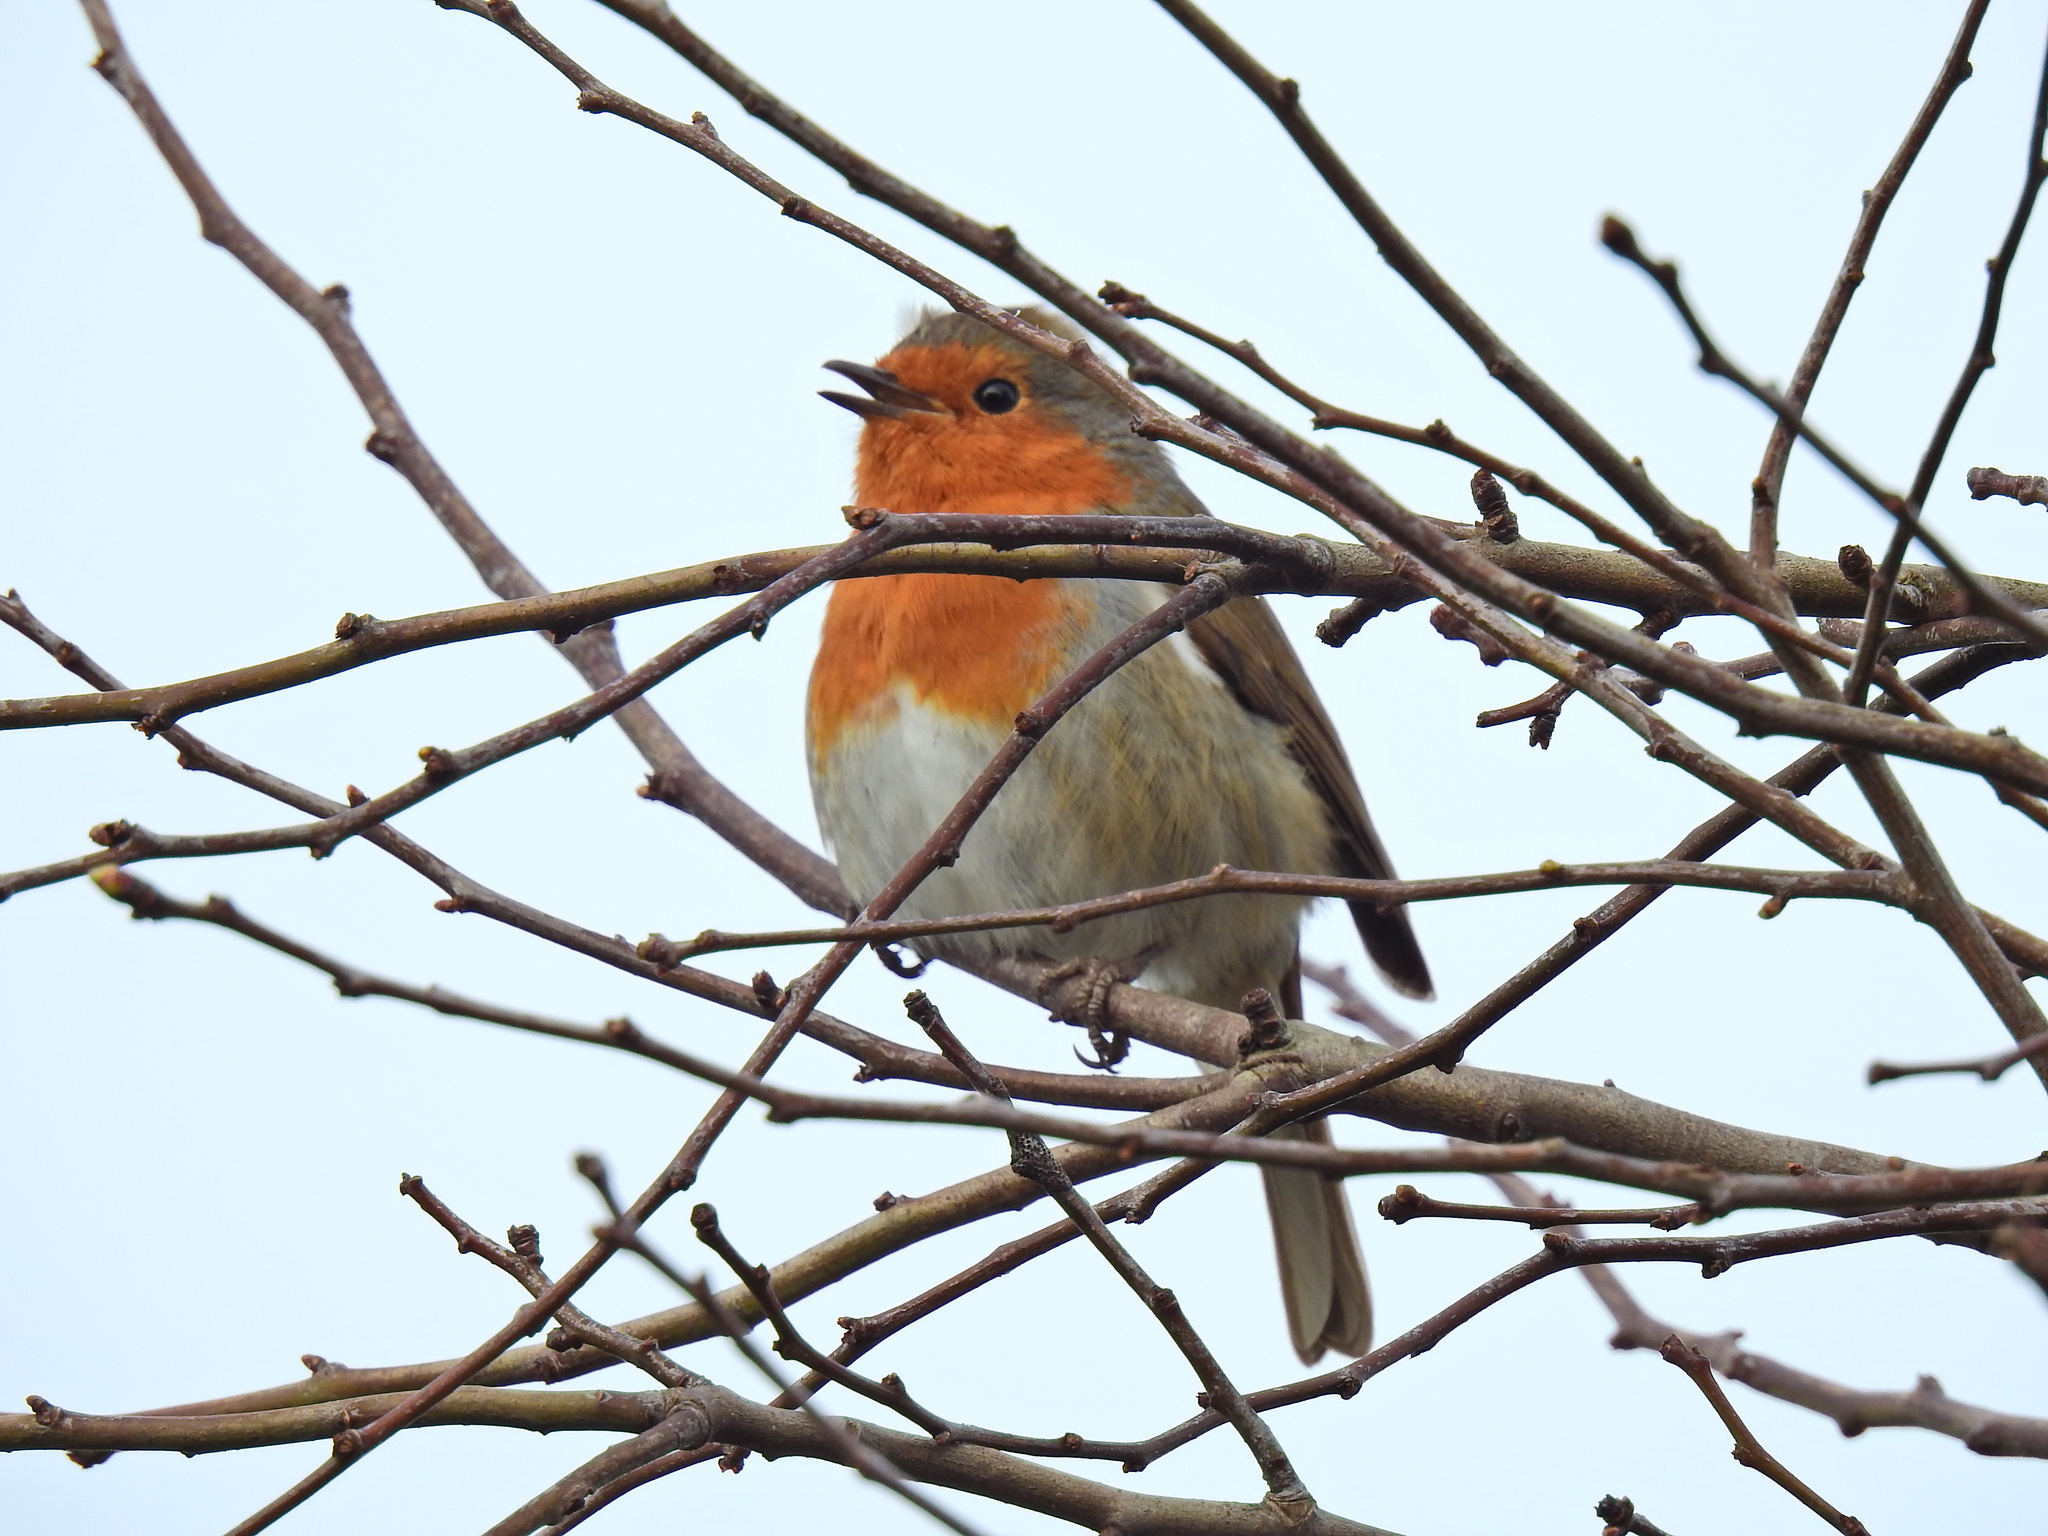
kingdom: Animalia
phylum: Chordata
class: Aves
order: Passeriformes
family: Muscicapidae
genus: Erithacus
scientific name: Erithacus rubecula
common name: European robin
